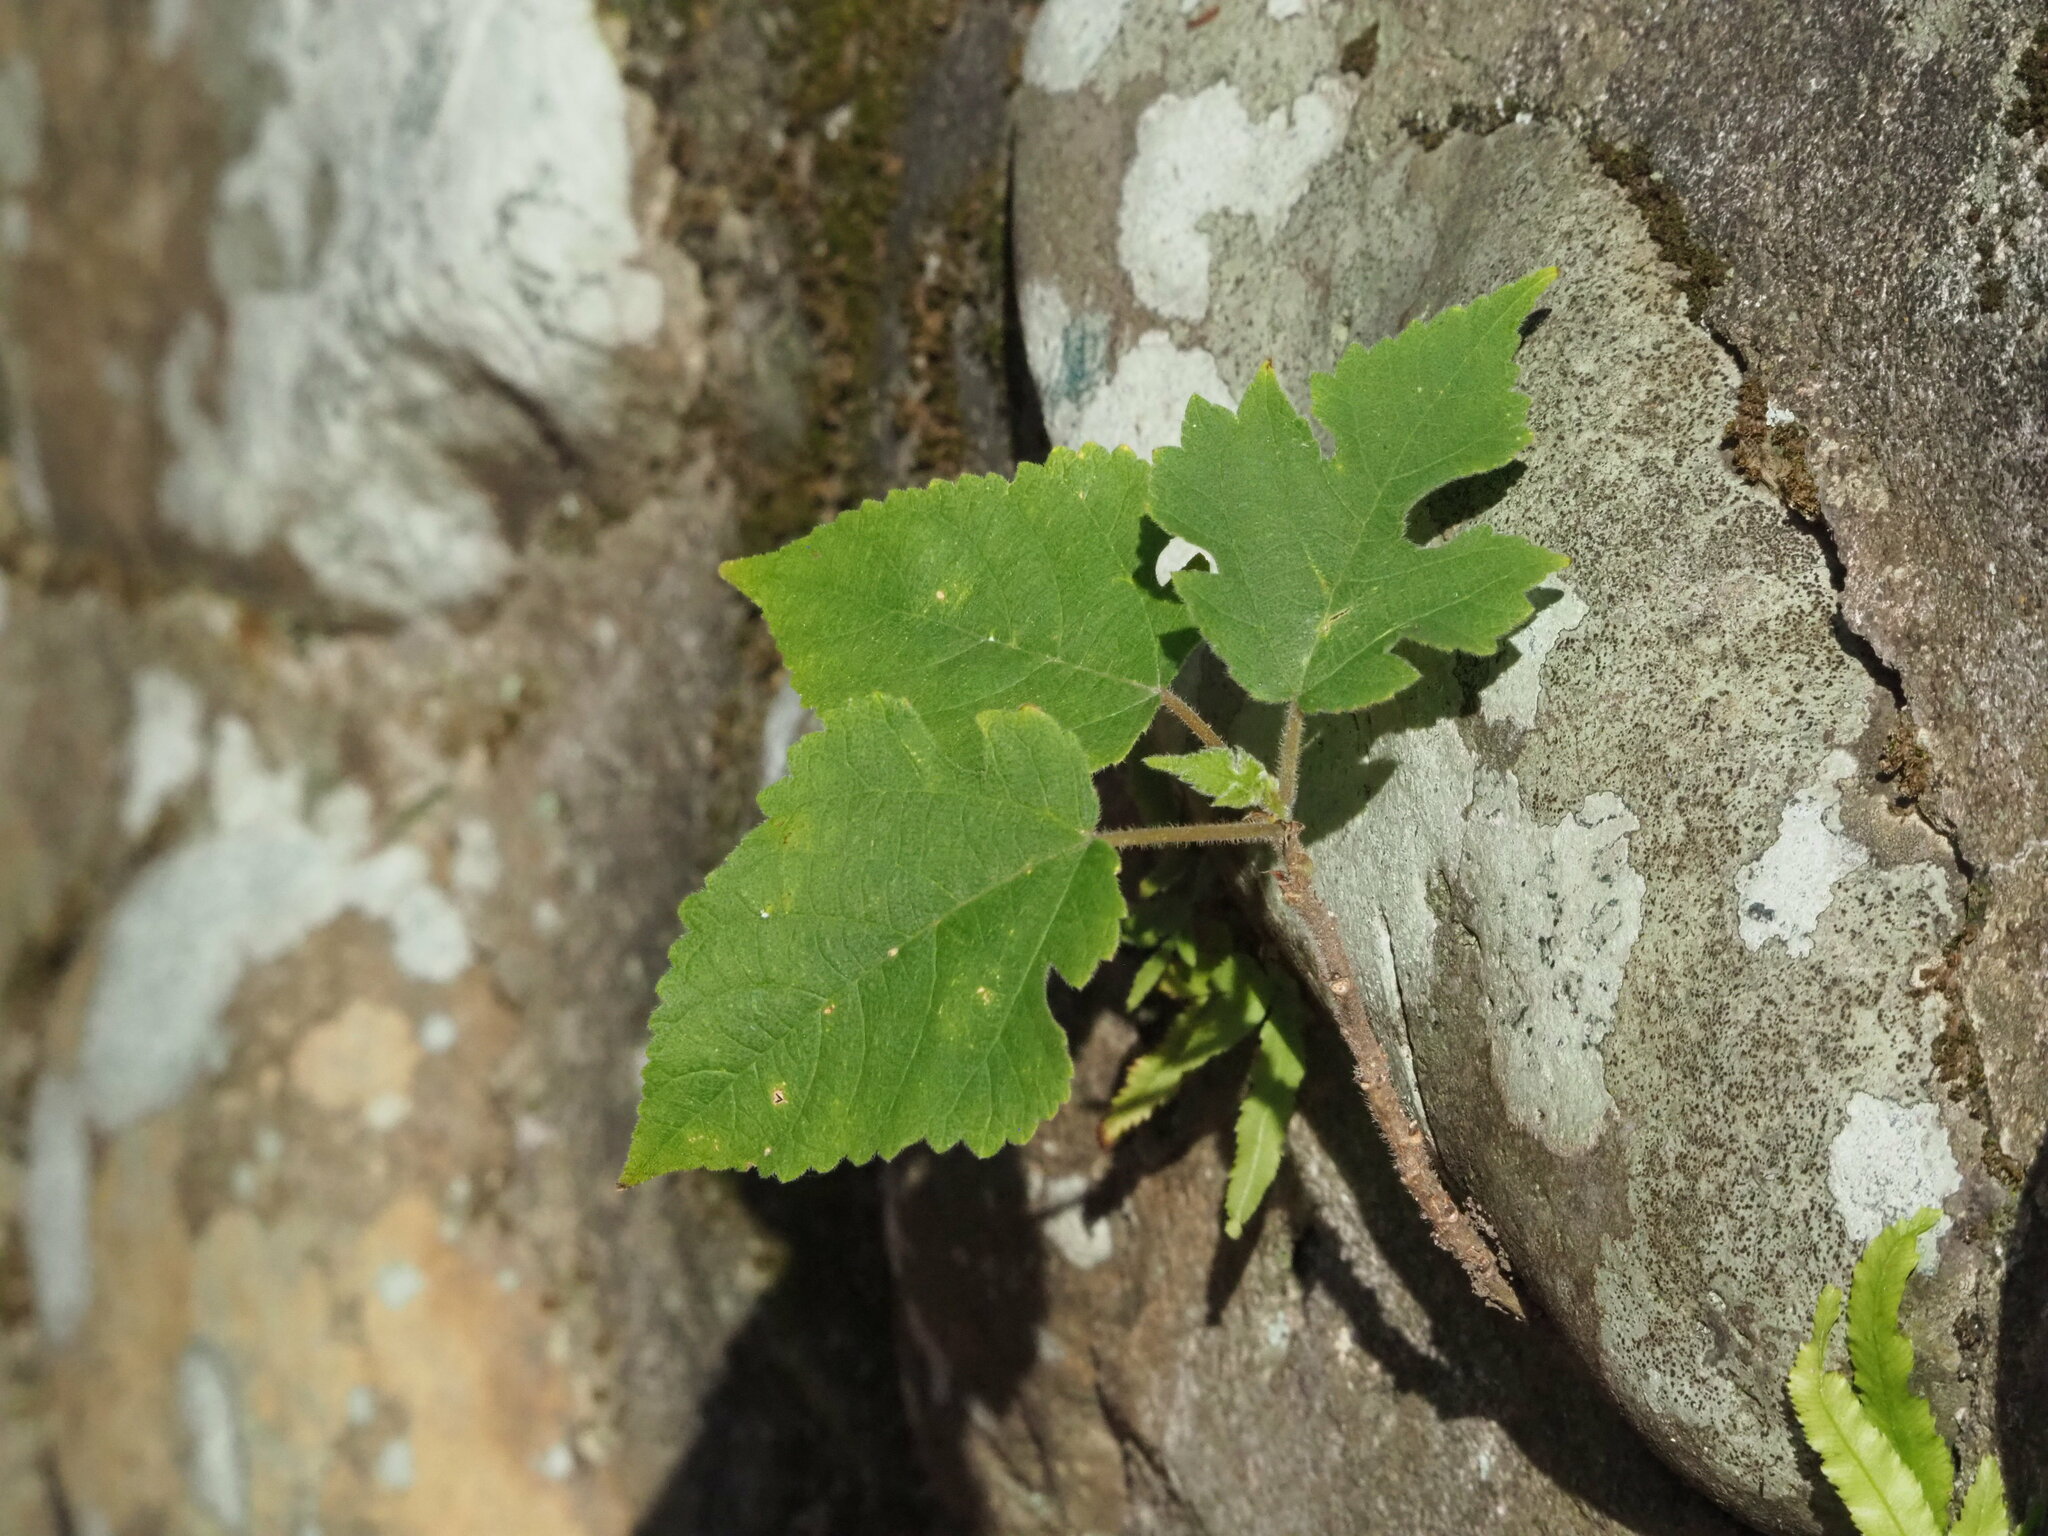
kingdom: Plantae
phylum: Tracheophyta
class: Magnoliopsida
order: Rosales
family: Moraceae
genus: Broussonetia
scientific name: Broussonetia papyrifera
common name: Paper mulberry
